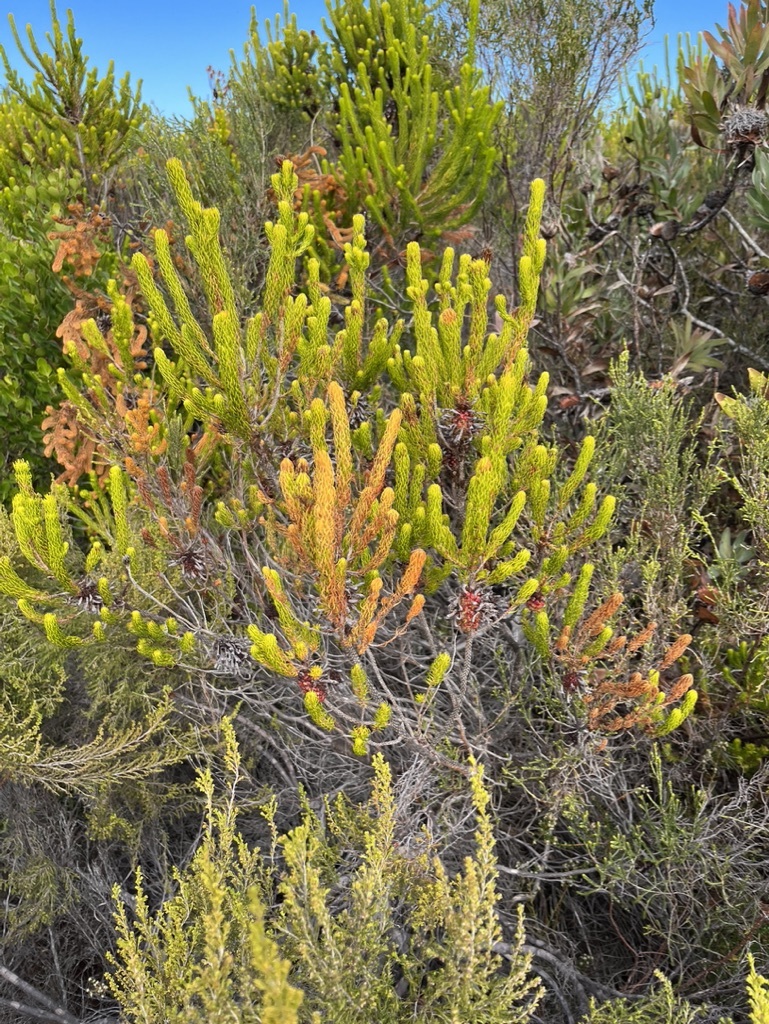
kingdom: Plantae
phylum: Tracheophyta
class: Magnoliopsida
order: Ericales
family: Ericaceae
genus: Erica
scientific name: Erica sessiliflora
